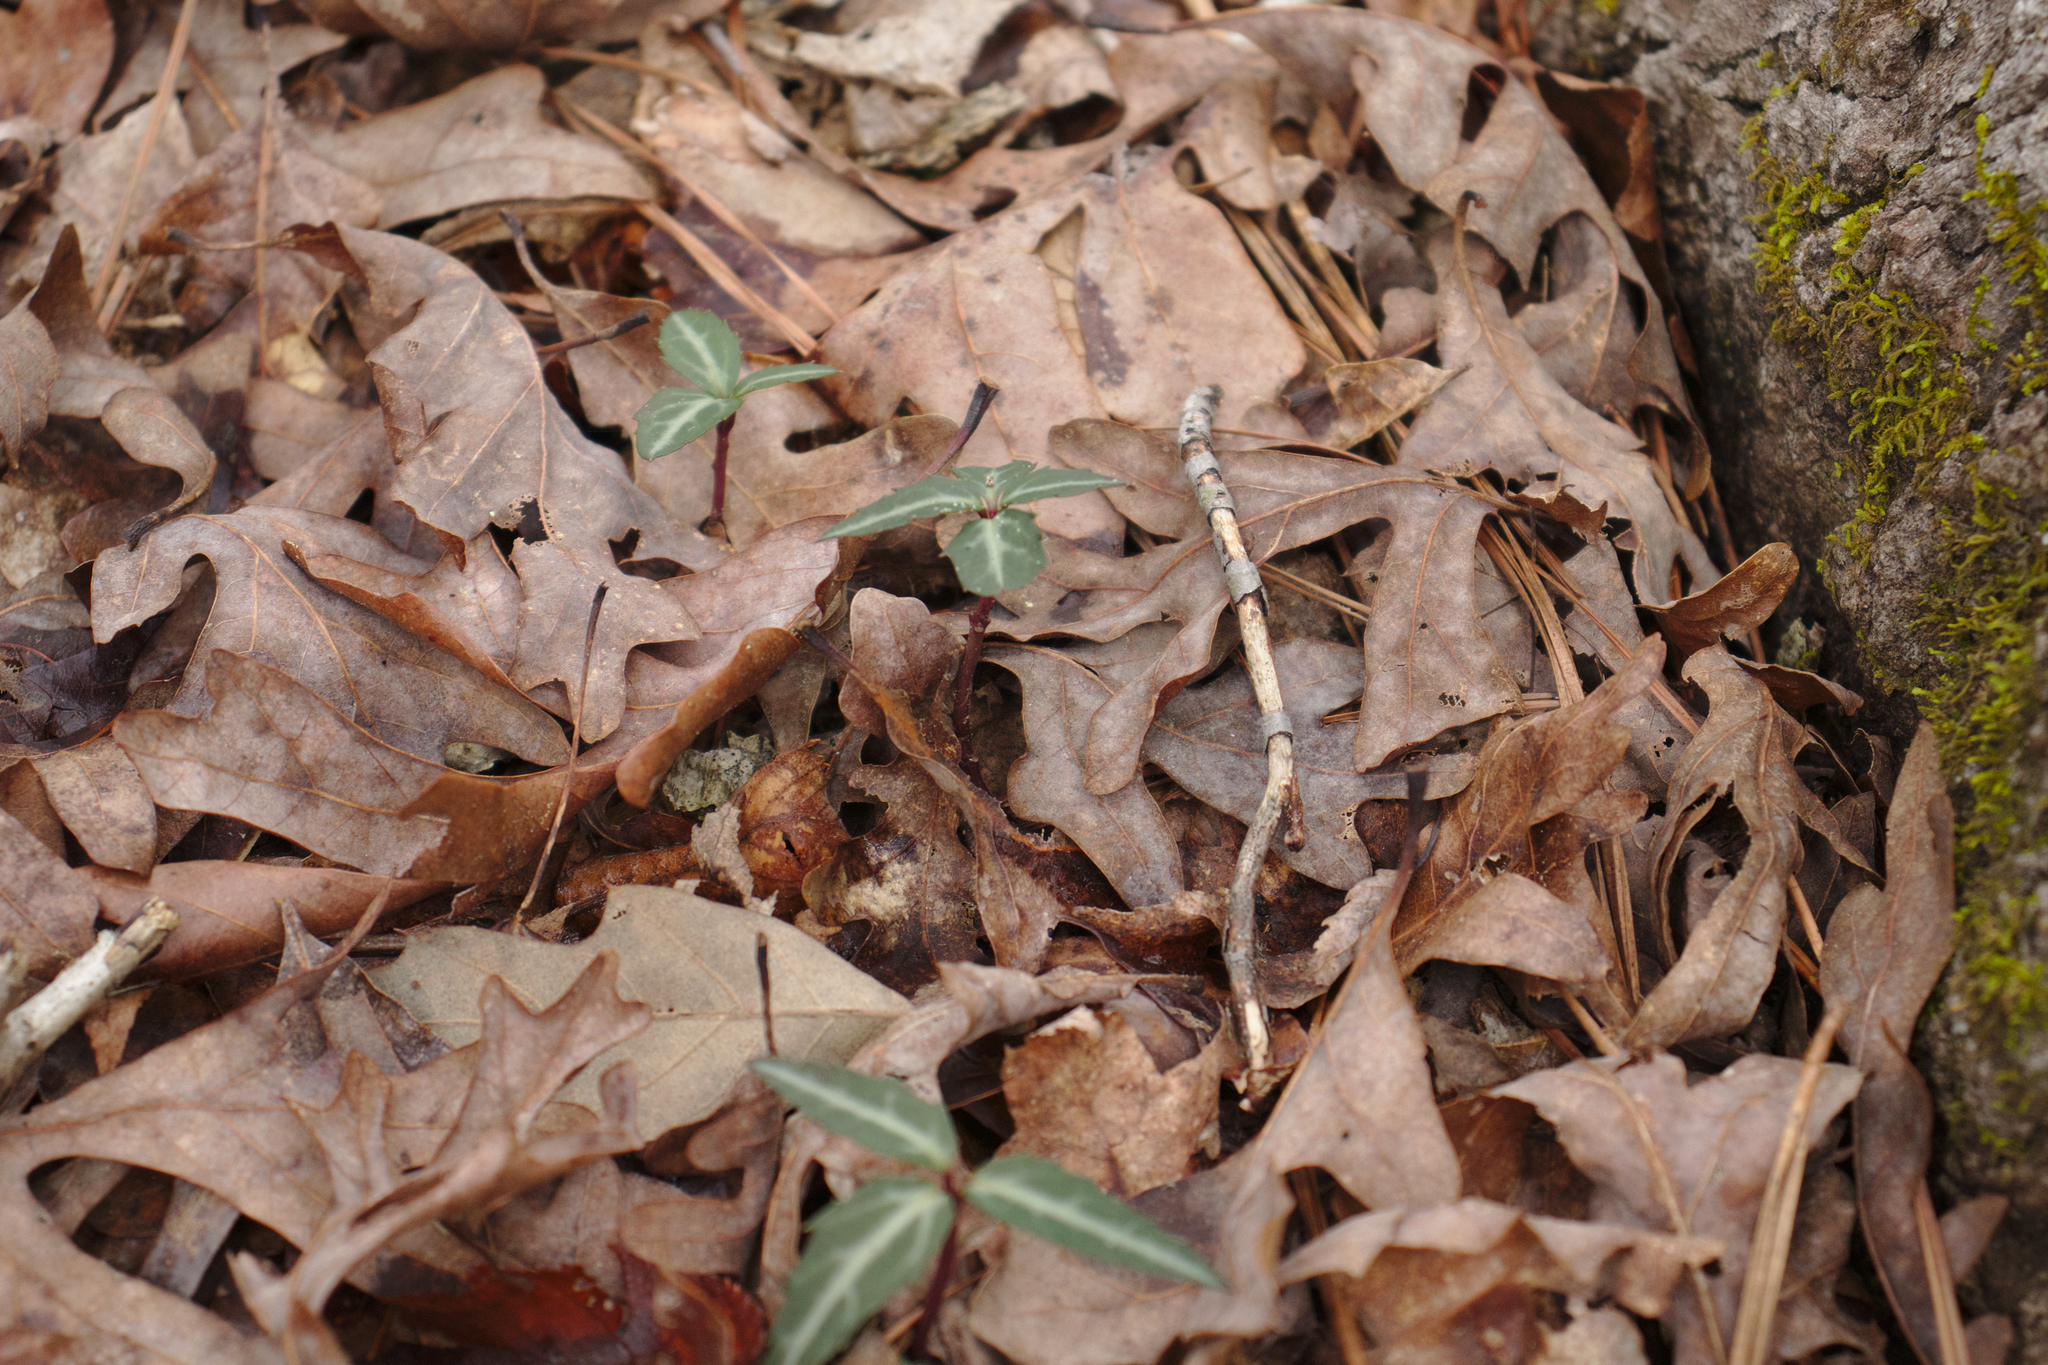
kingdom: Plantae
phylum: Tracheophyta
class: Magnoliopsida
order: Ericales
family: Ericaceae
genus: Chimaphila
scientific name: Chimaphila maculata
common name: Spotted pipsissewa
